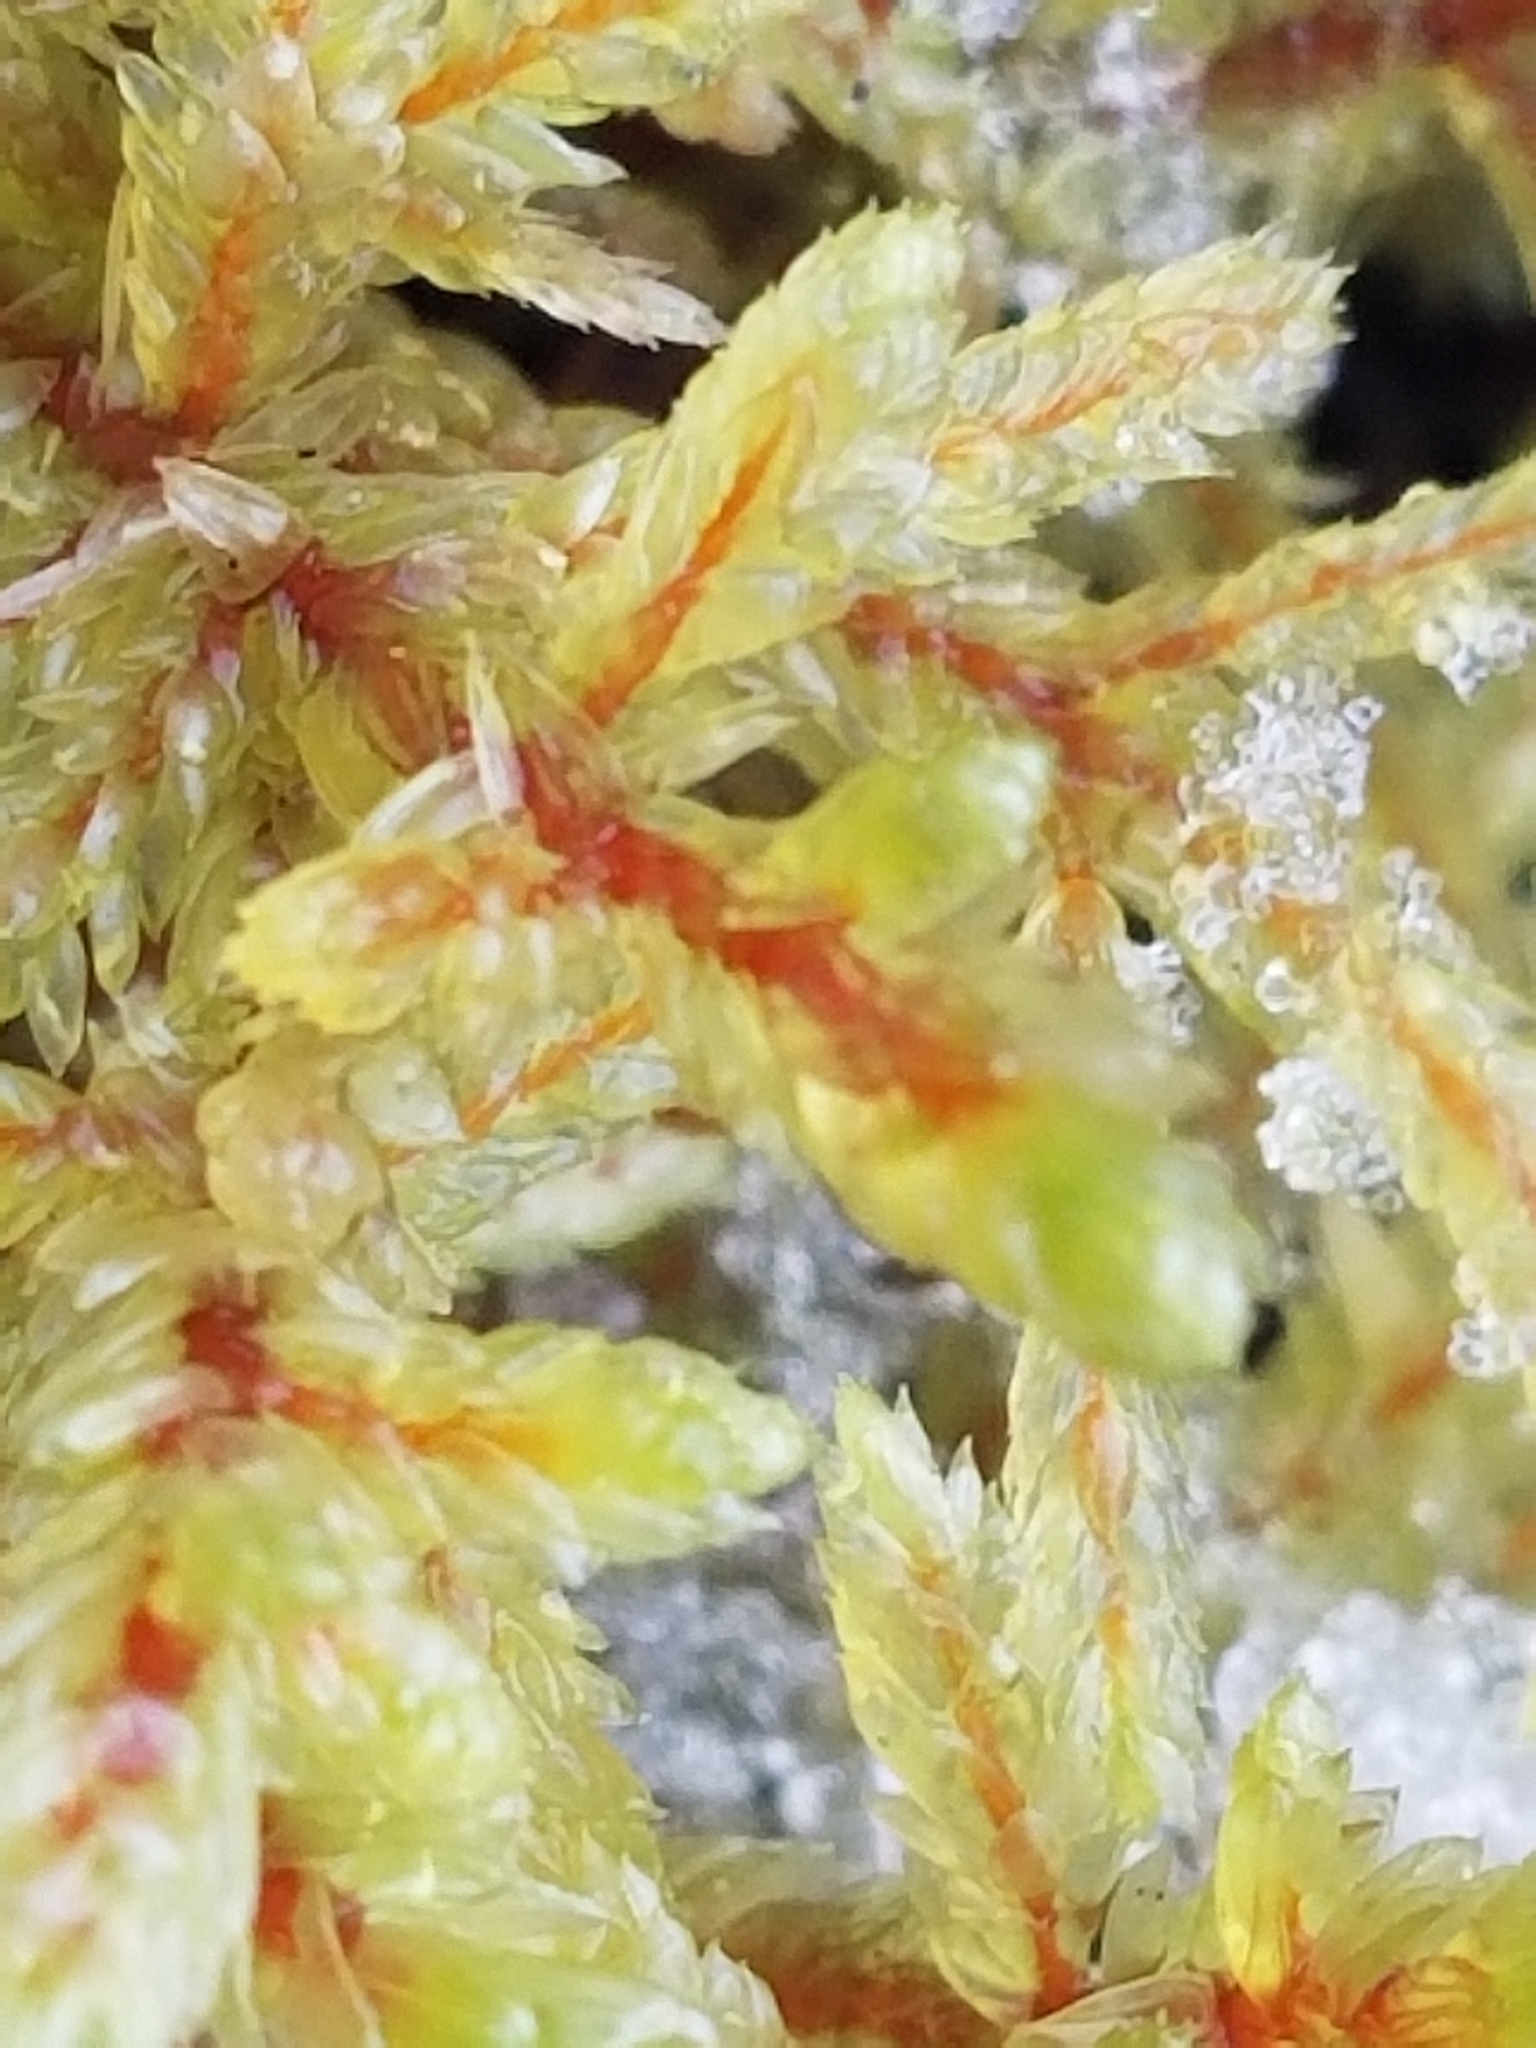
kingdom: Plantae
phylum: Bryophyta
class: Bryopsida
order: Hypnales
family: Hylocomiaceae
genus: Pleurozium
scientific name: Pleurozium schreberi
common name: Red-stemmed feather moss
